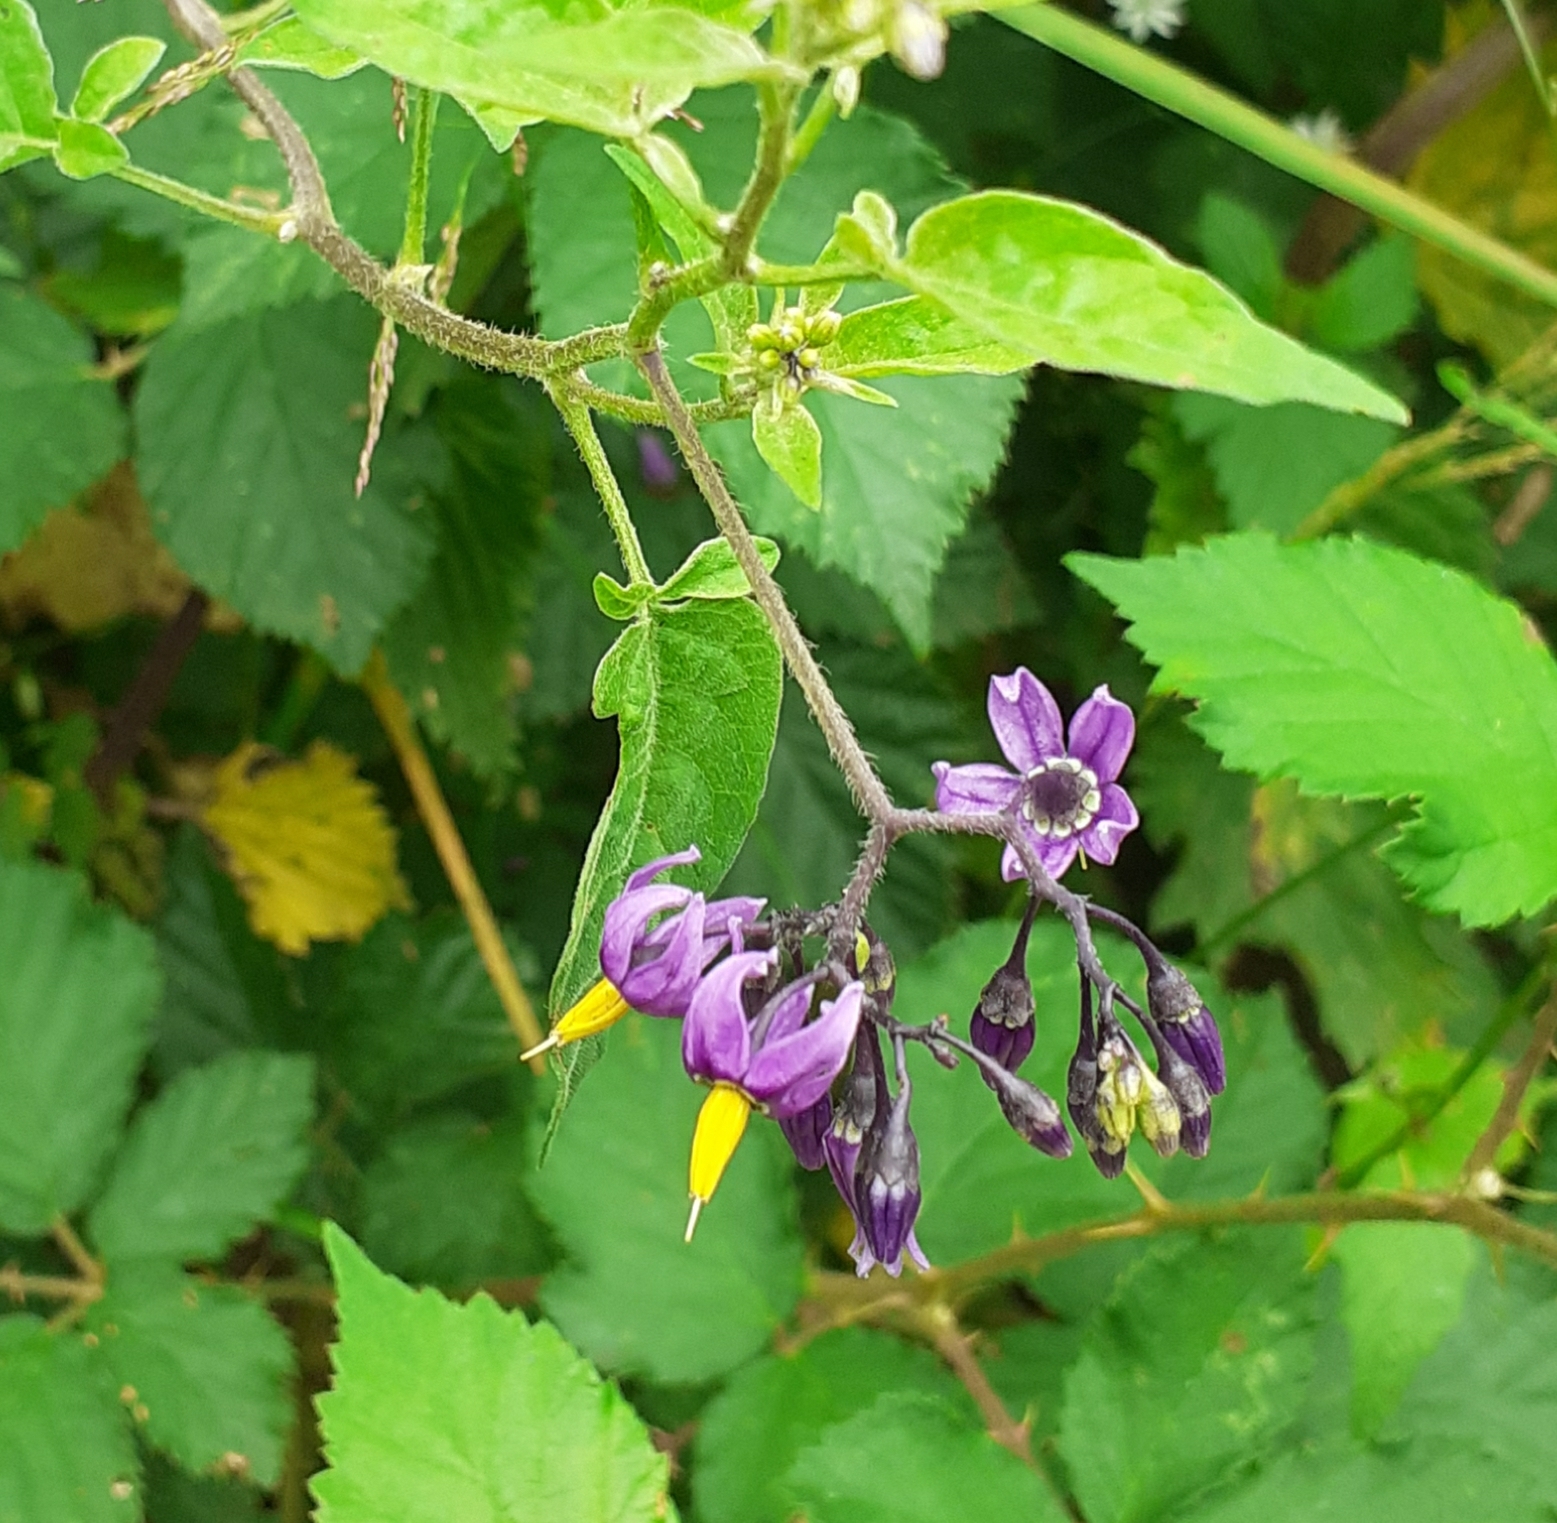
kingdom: Plantae
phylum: Tracheophyta
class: Magnoliopsida
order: Solanales
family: Solanaceae
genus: Solanum
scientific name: Solanum dulcamara
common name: Climbing nightshade
